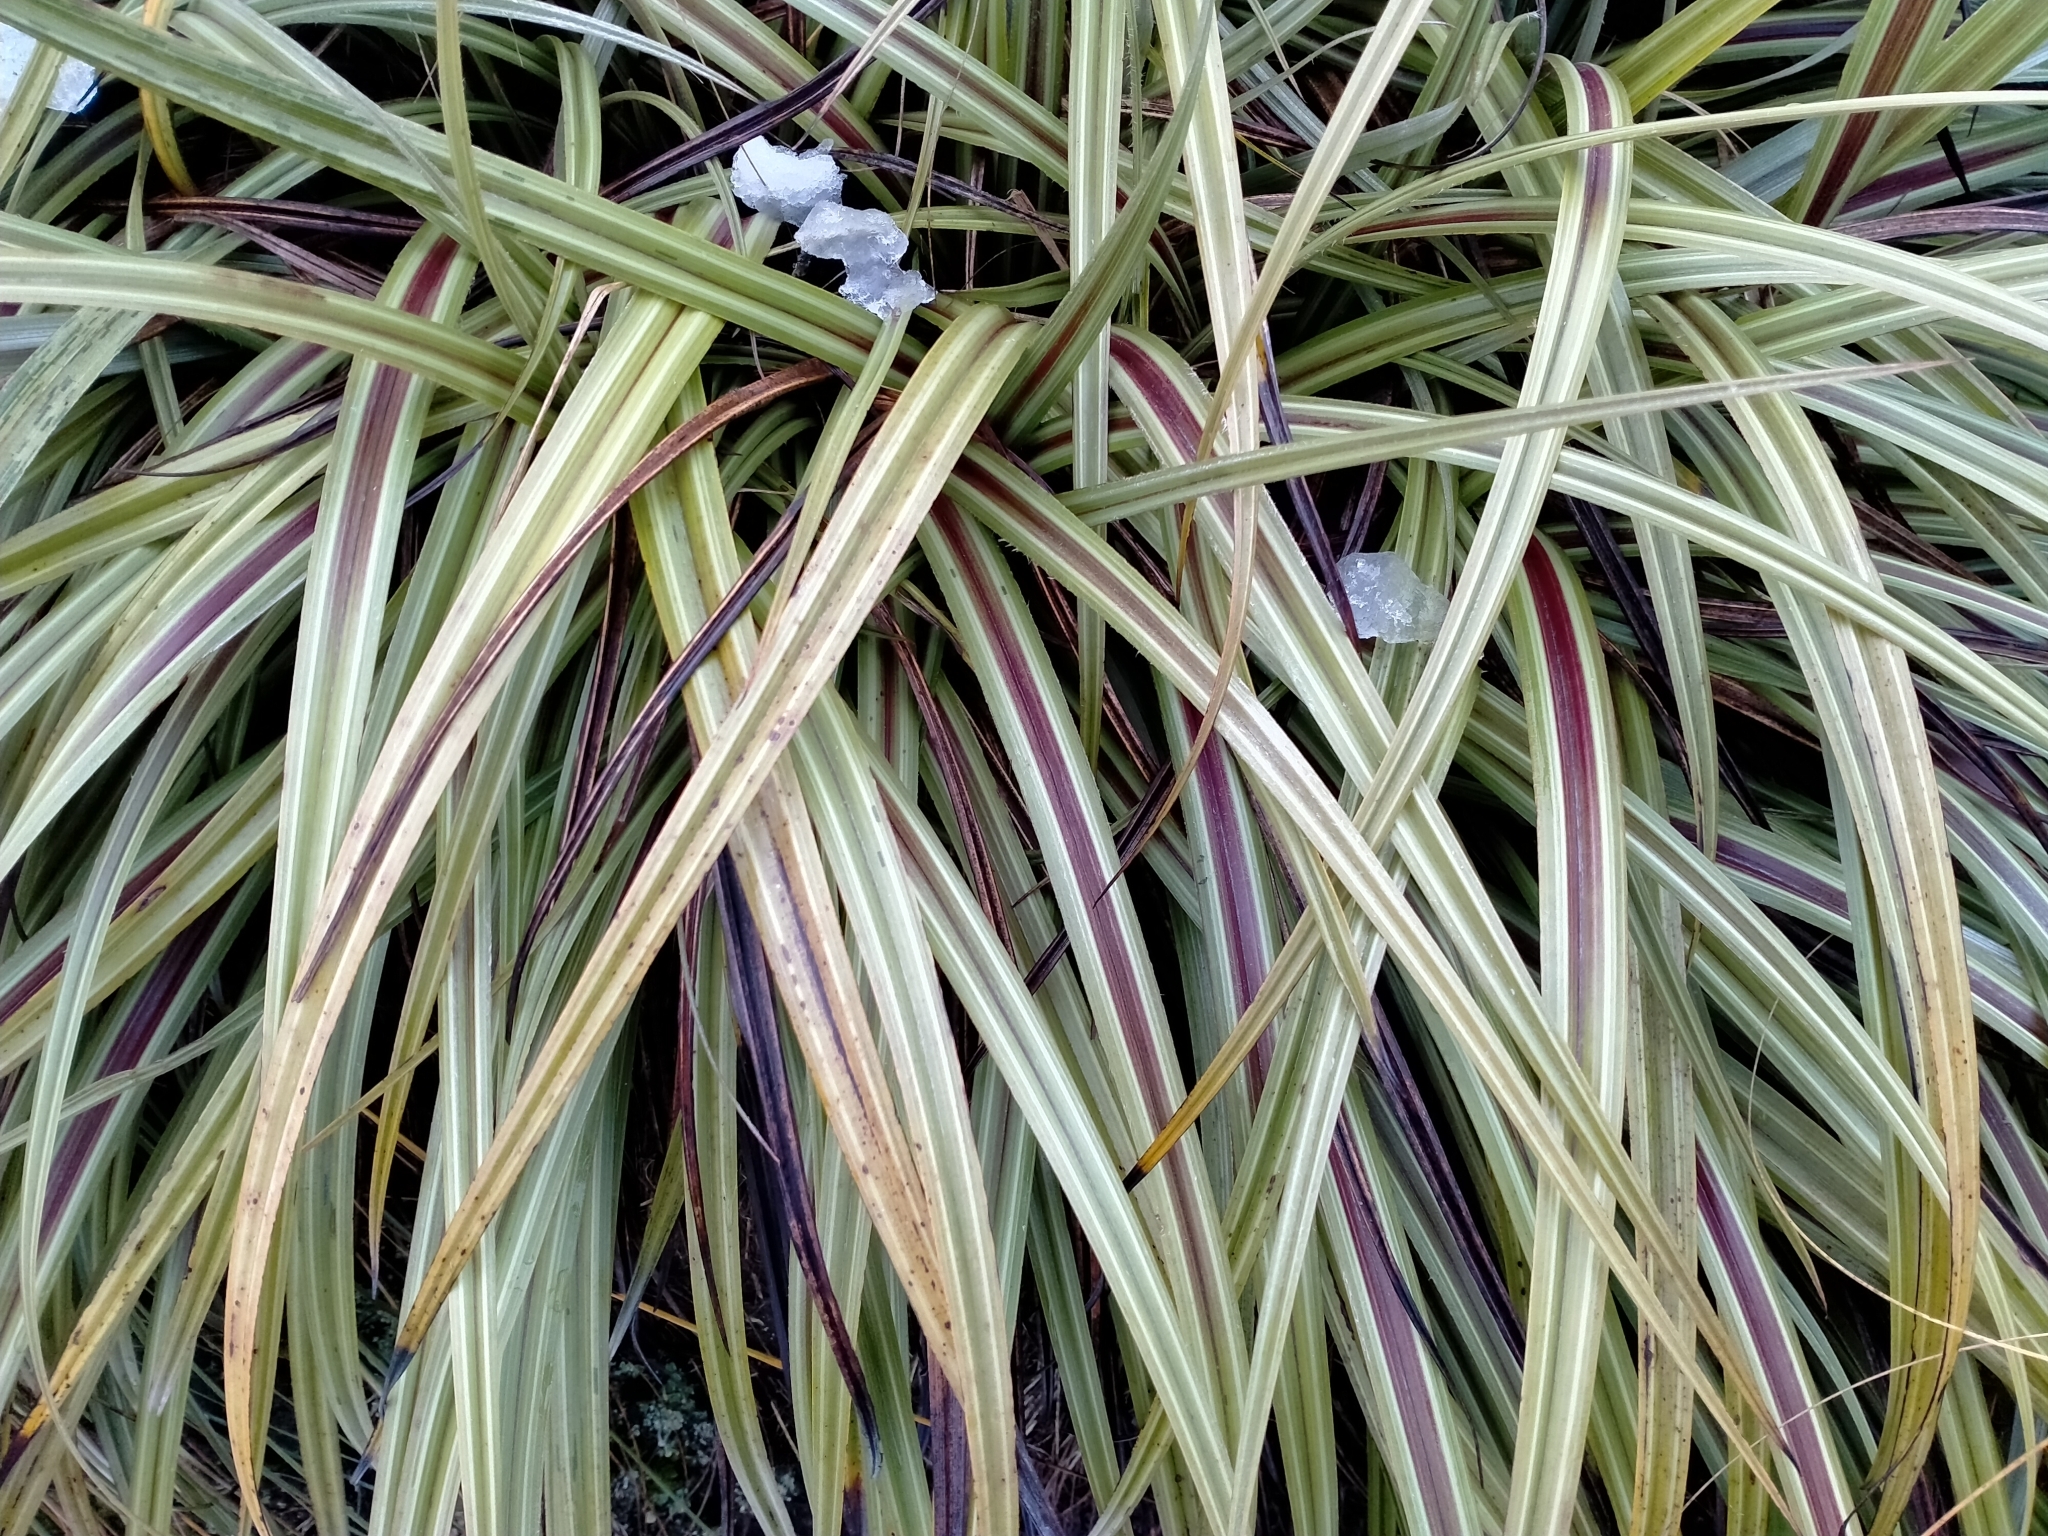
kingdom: Plantae
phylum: Tracheophyta
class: Liliopsida
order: Asparagales
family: Asteliaceae
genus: Astelia
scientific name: Astelia nervosa
